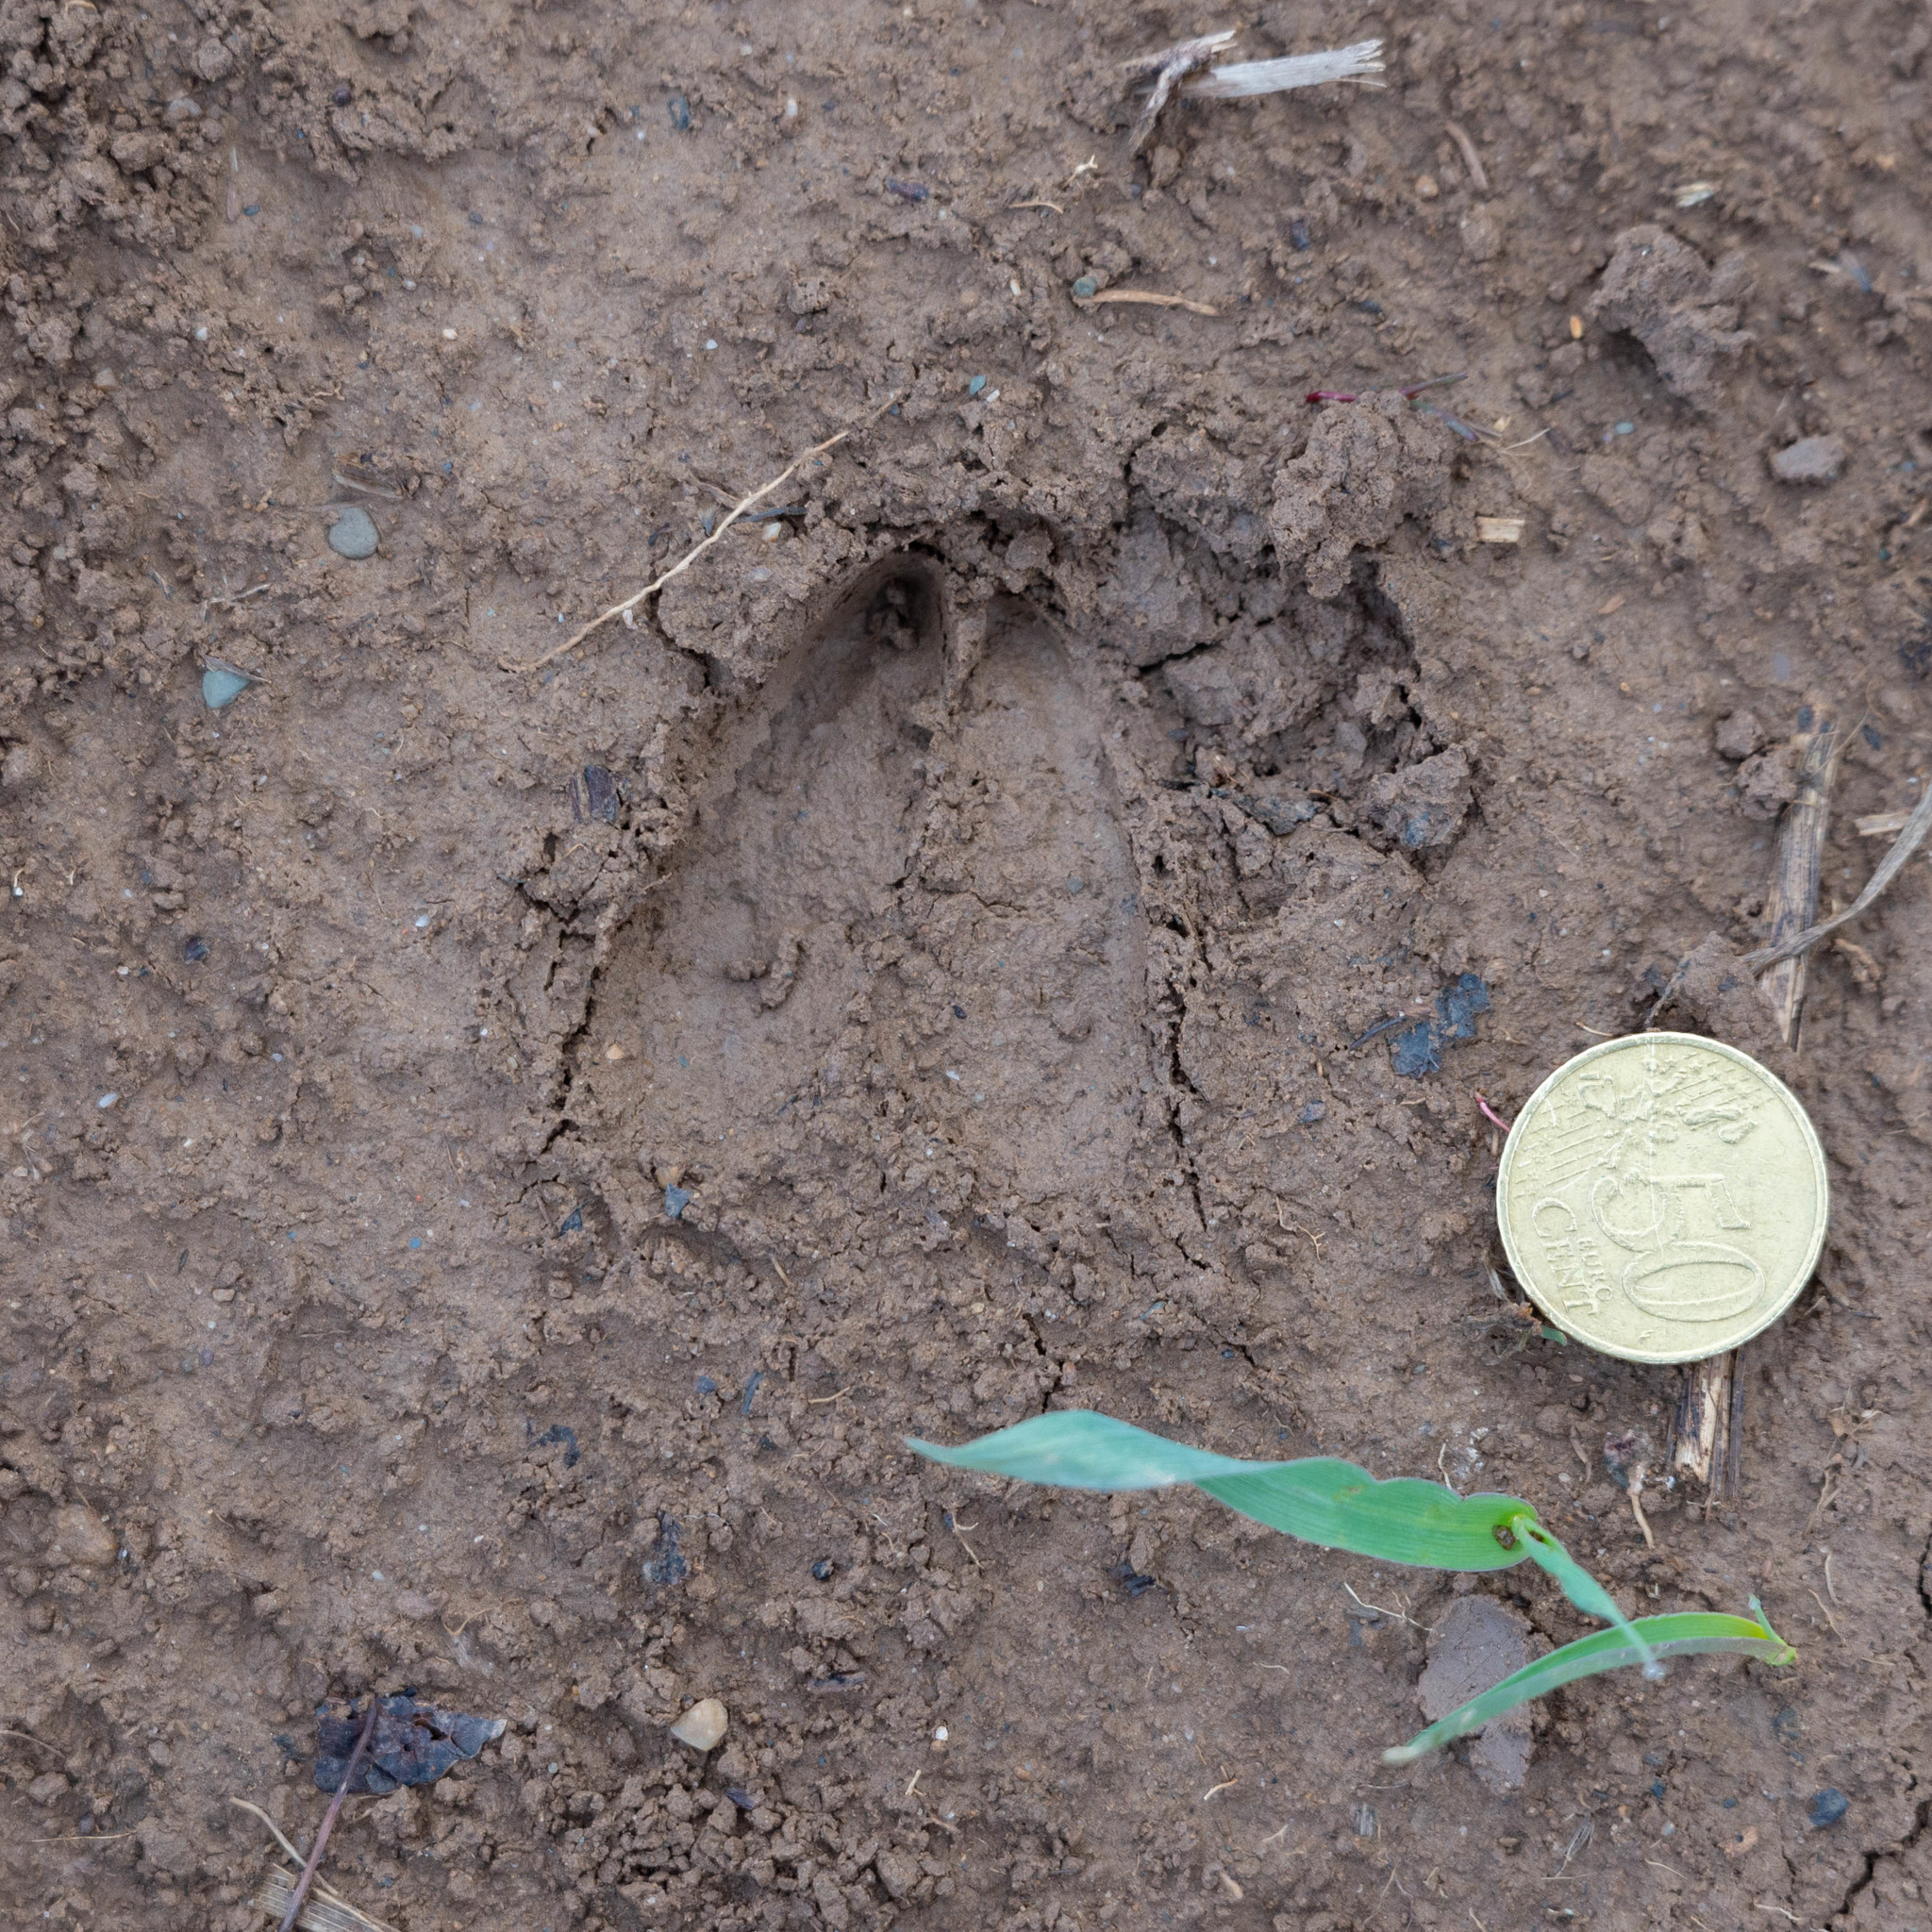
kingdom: Animalia
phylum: Chordata
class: Mammalia
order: Artiodactyla
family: Cervidae
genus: Capreolus
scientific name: Capreolus capreolus
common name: Western roe deer
